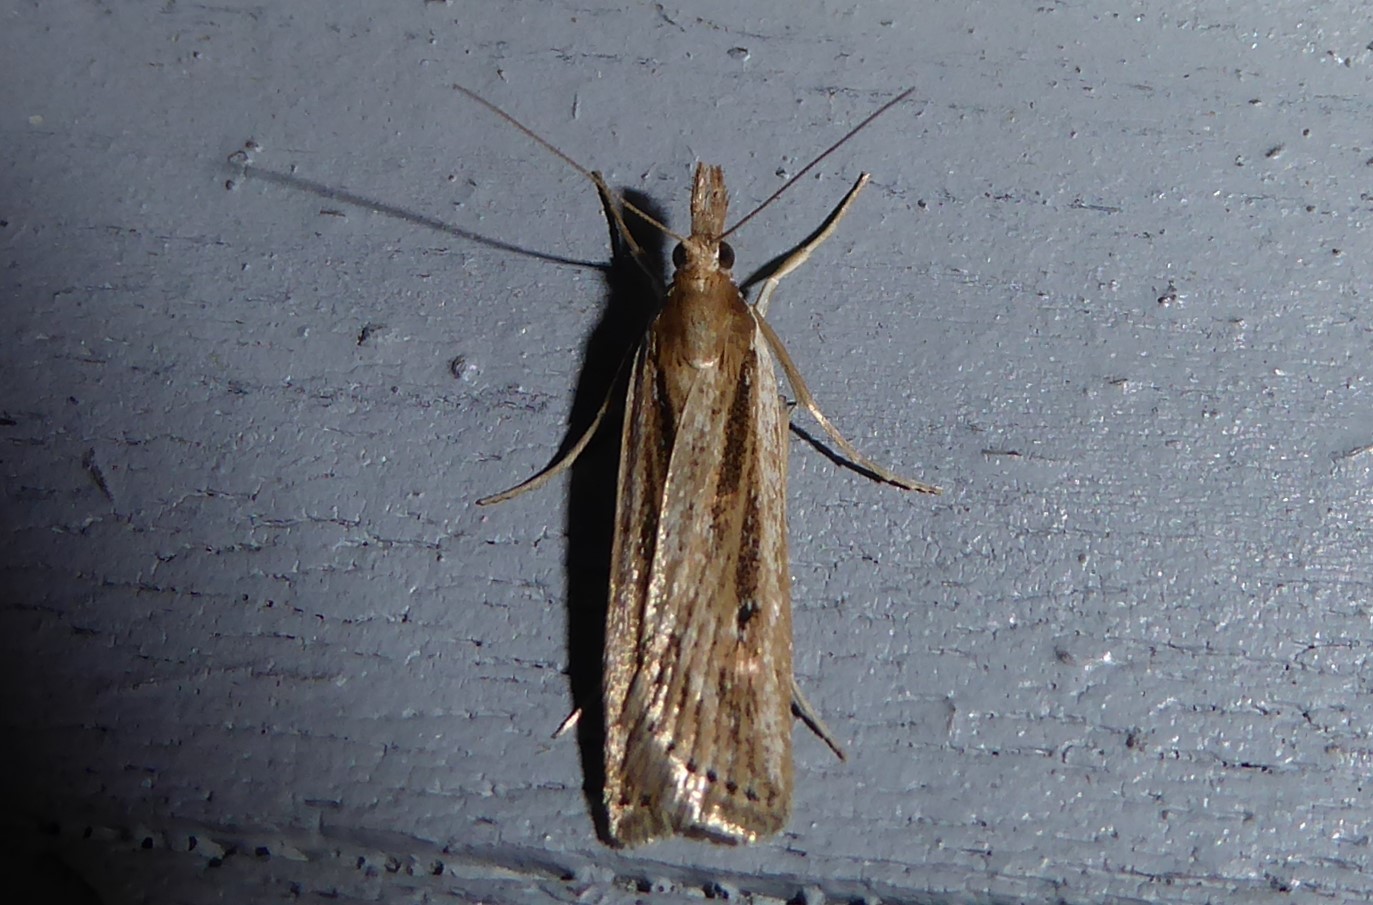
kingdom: Animalia
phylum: Arthropoda
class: Insecta
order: Lepidoptera
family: Crambidae
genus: Eudonia
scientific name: Eudonia sabulosella
